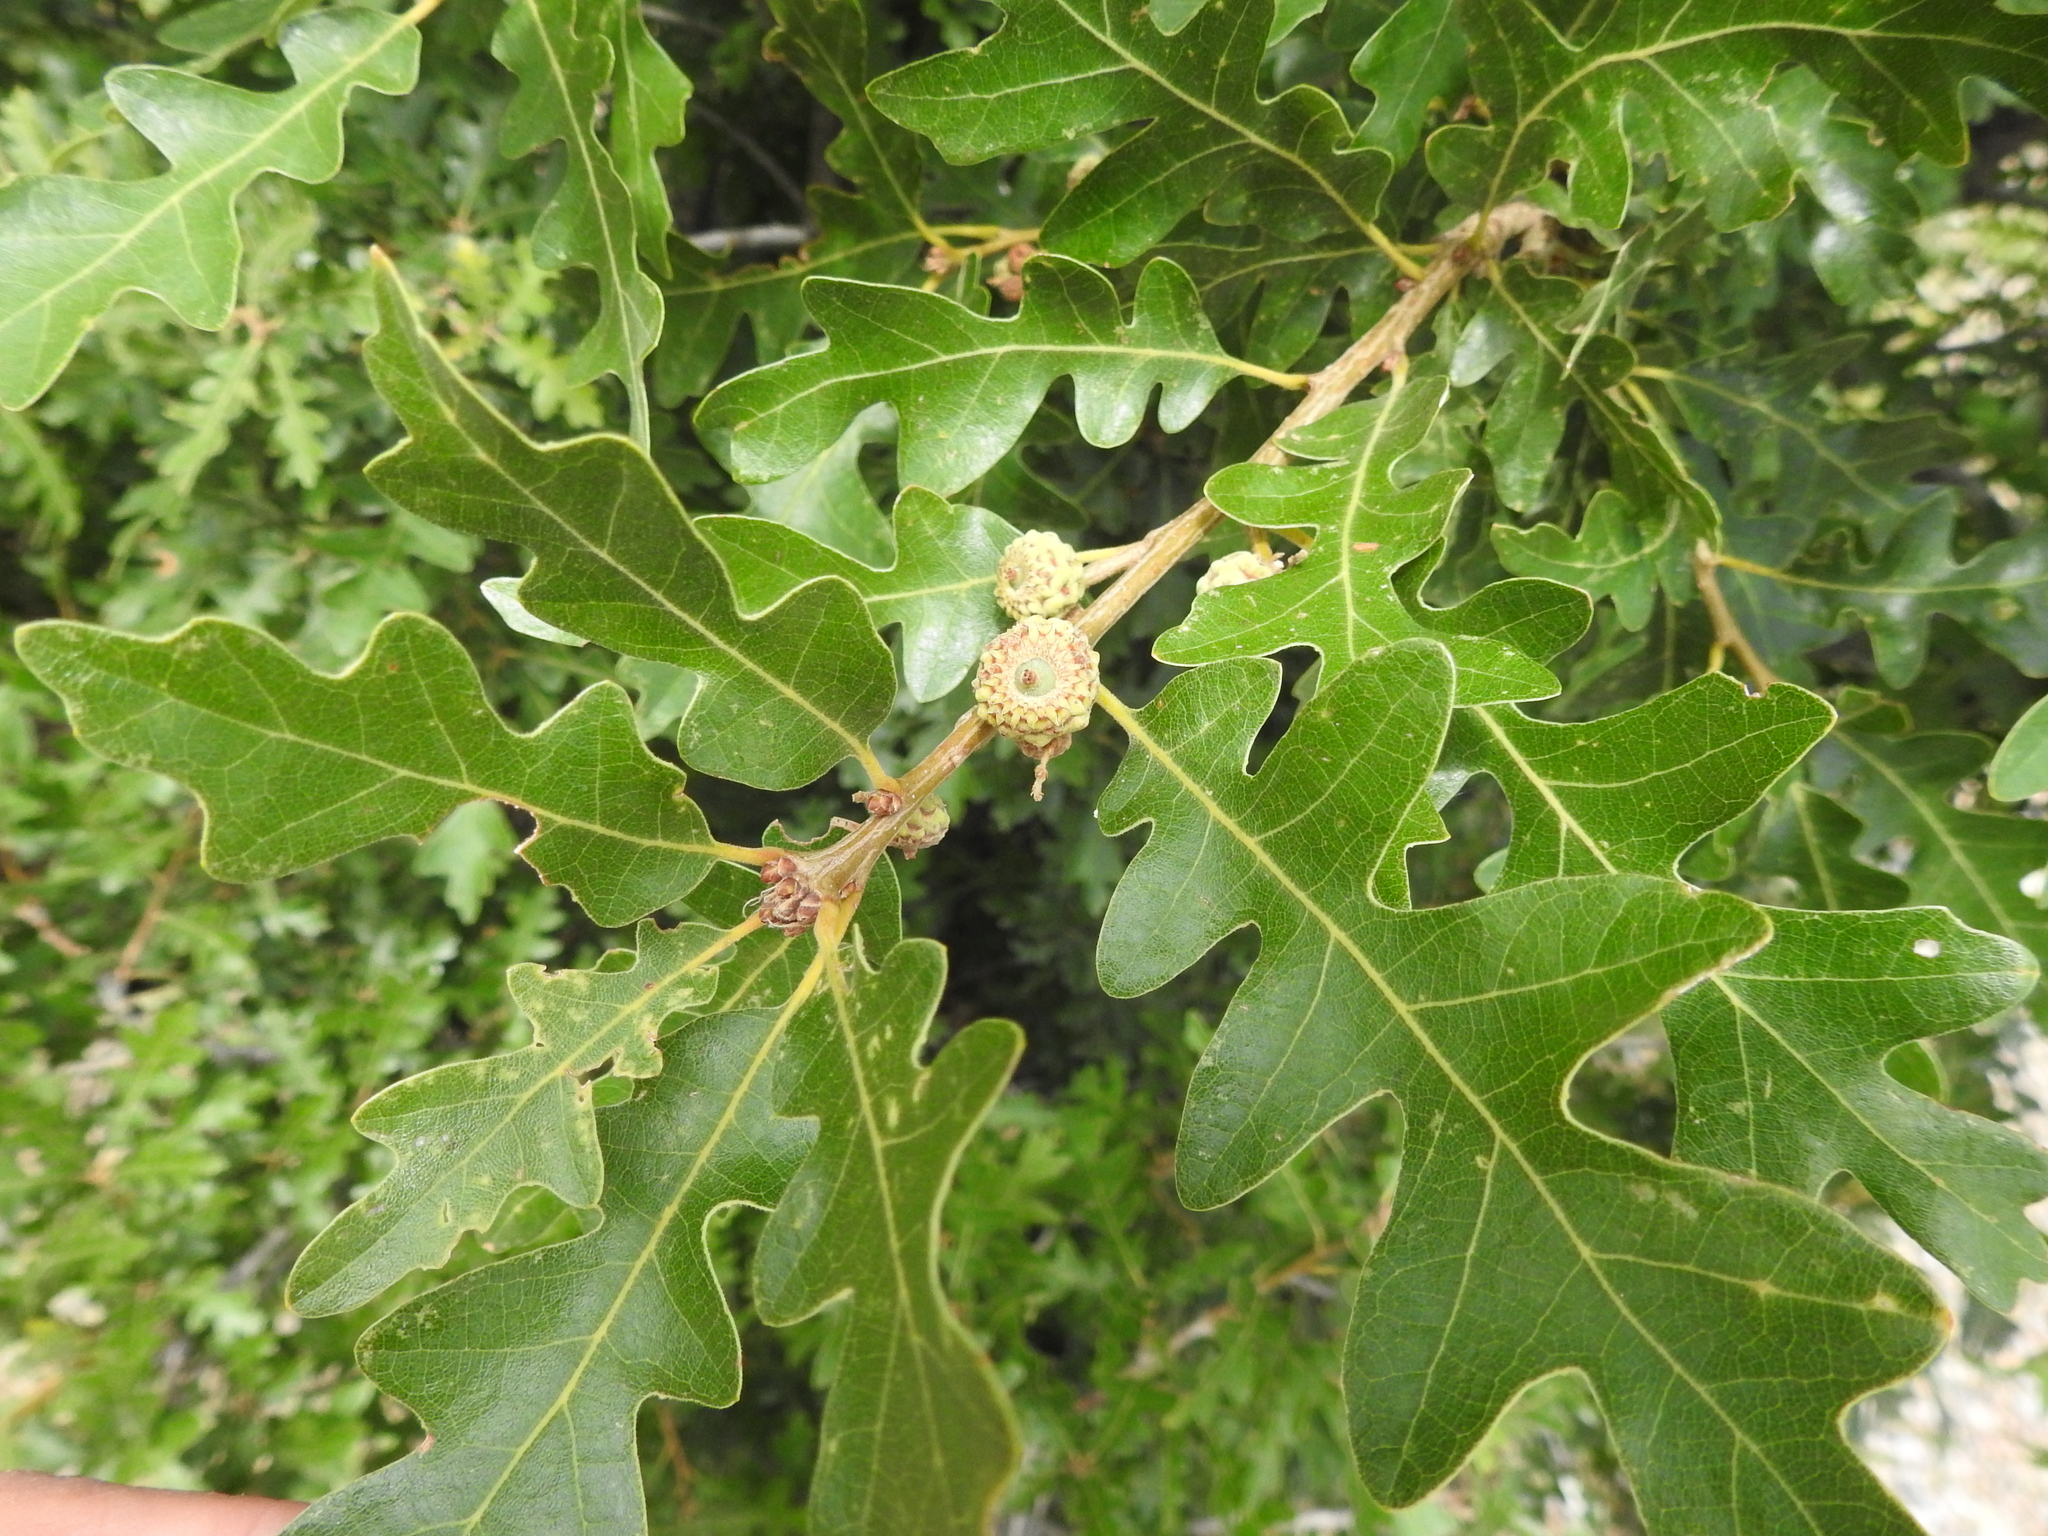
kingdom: Plantae
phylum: Tracheophyta
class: Magnoliopsida
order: Fagales
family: Fagaceae
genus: Quercus
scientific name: Quercus gambelii
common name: Gambel oak
